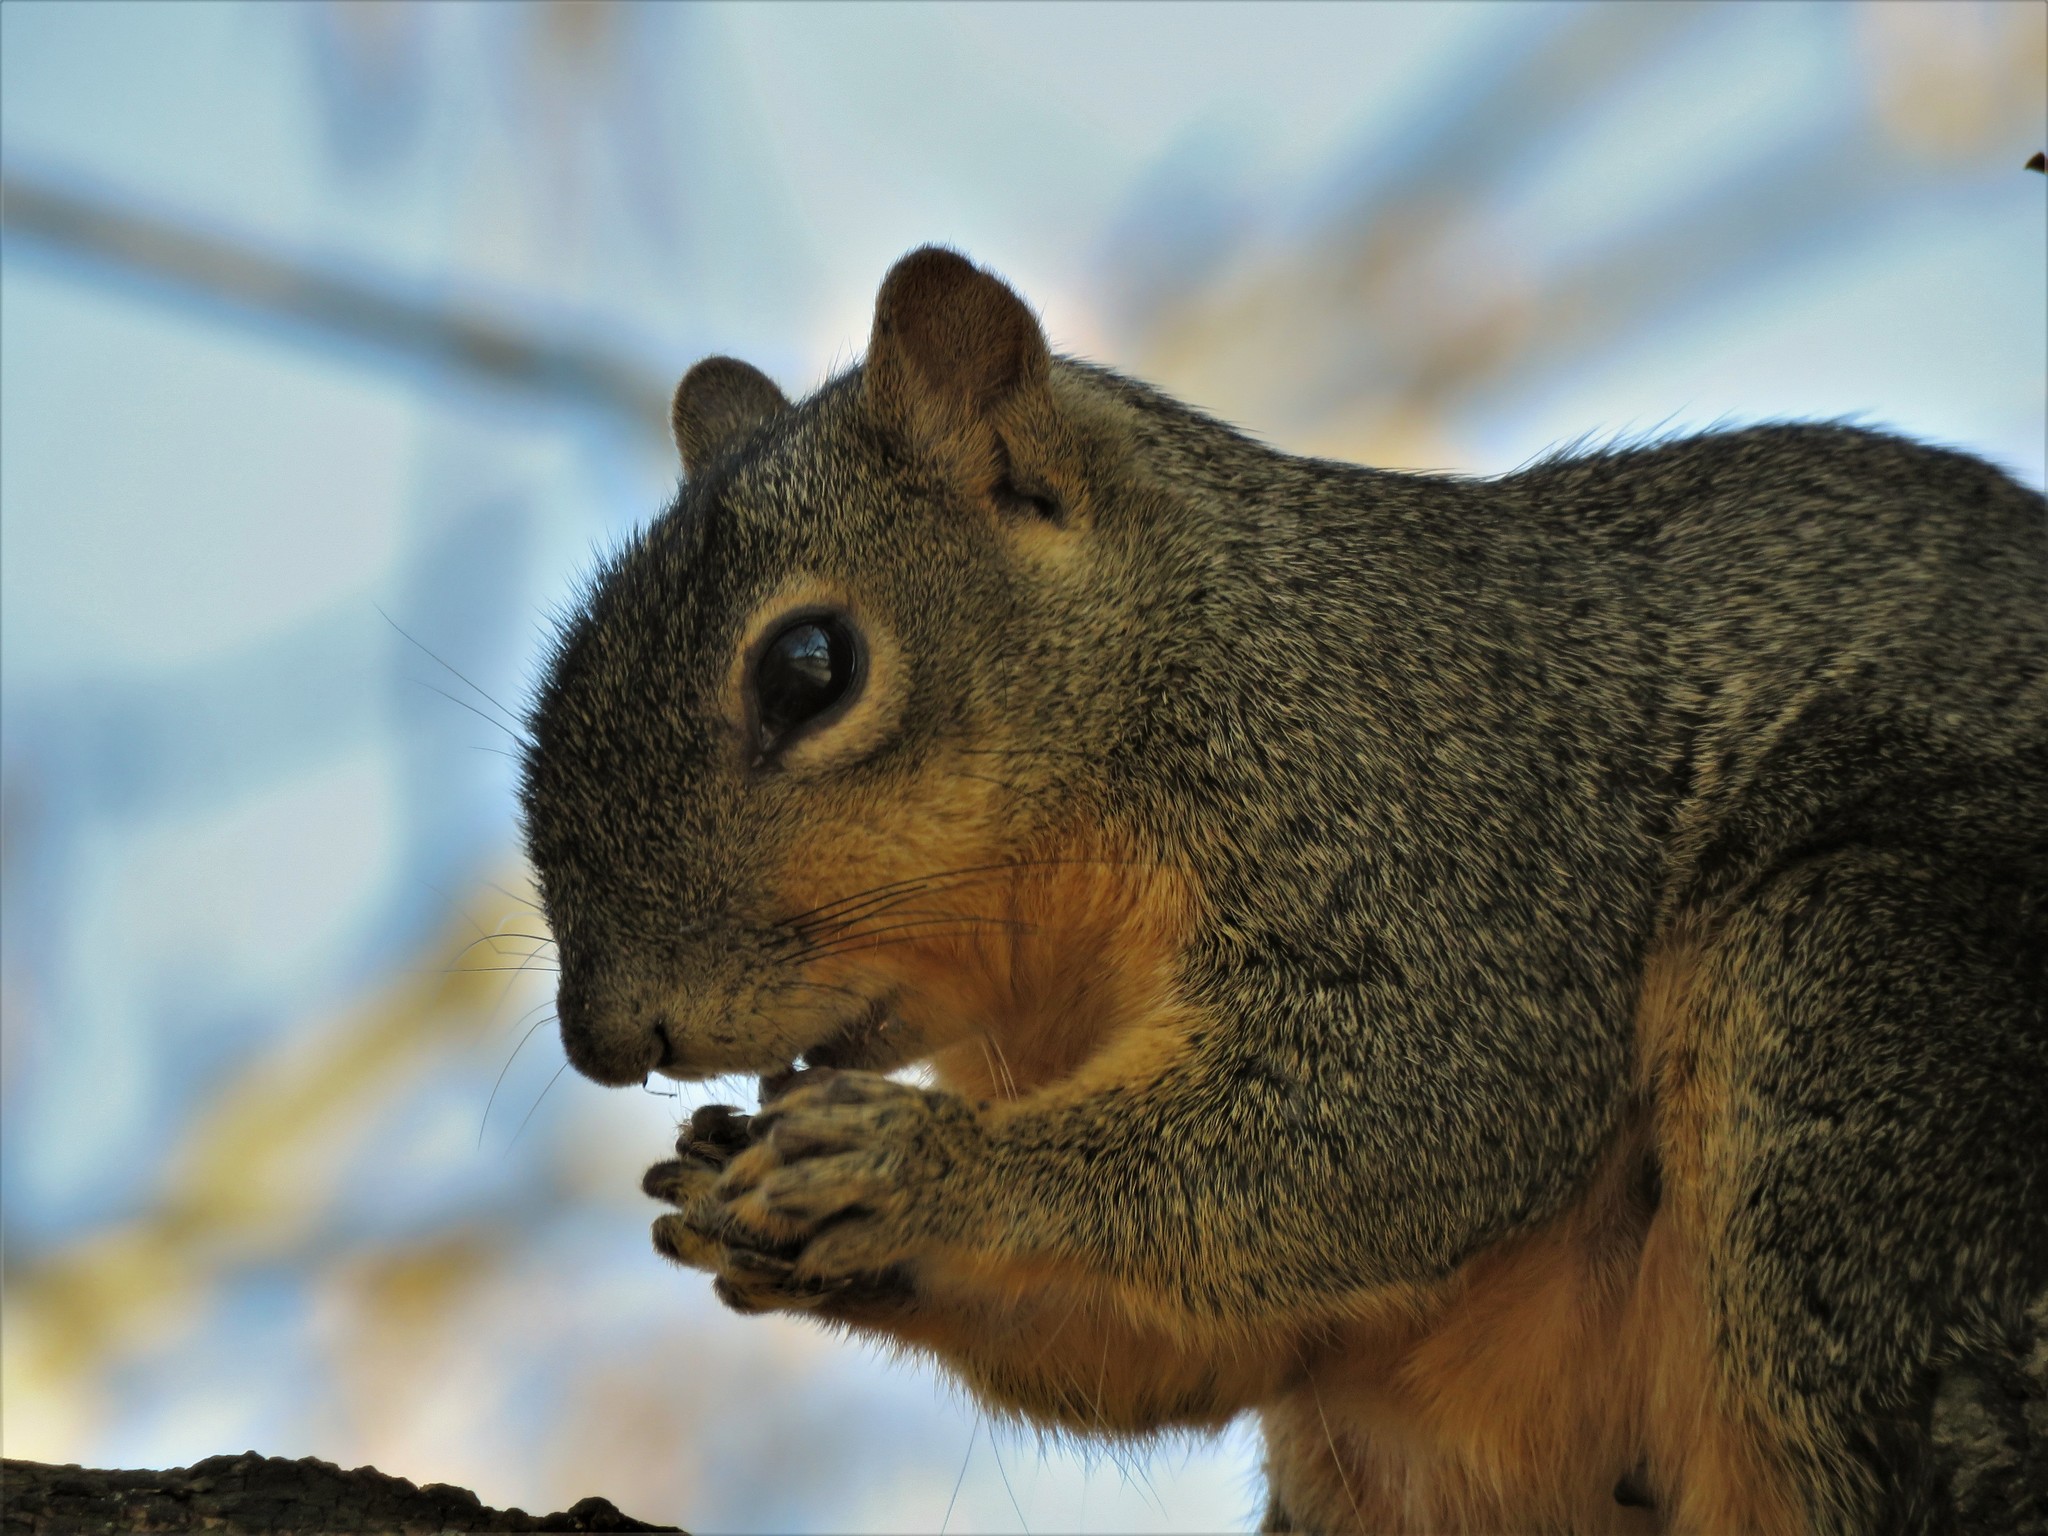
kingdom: Animalia
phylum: Chordata
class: Mammalia
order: Rodentia
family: Sciuridae
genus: Sciurus
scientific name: Sciurus niger
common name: Fox squirrel
